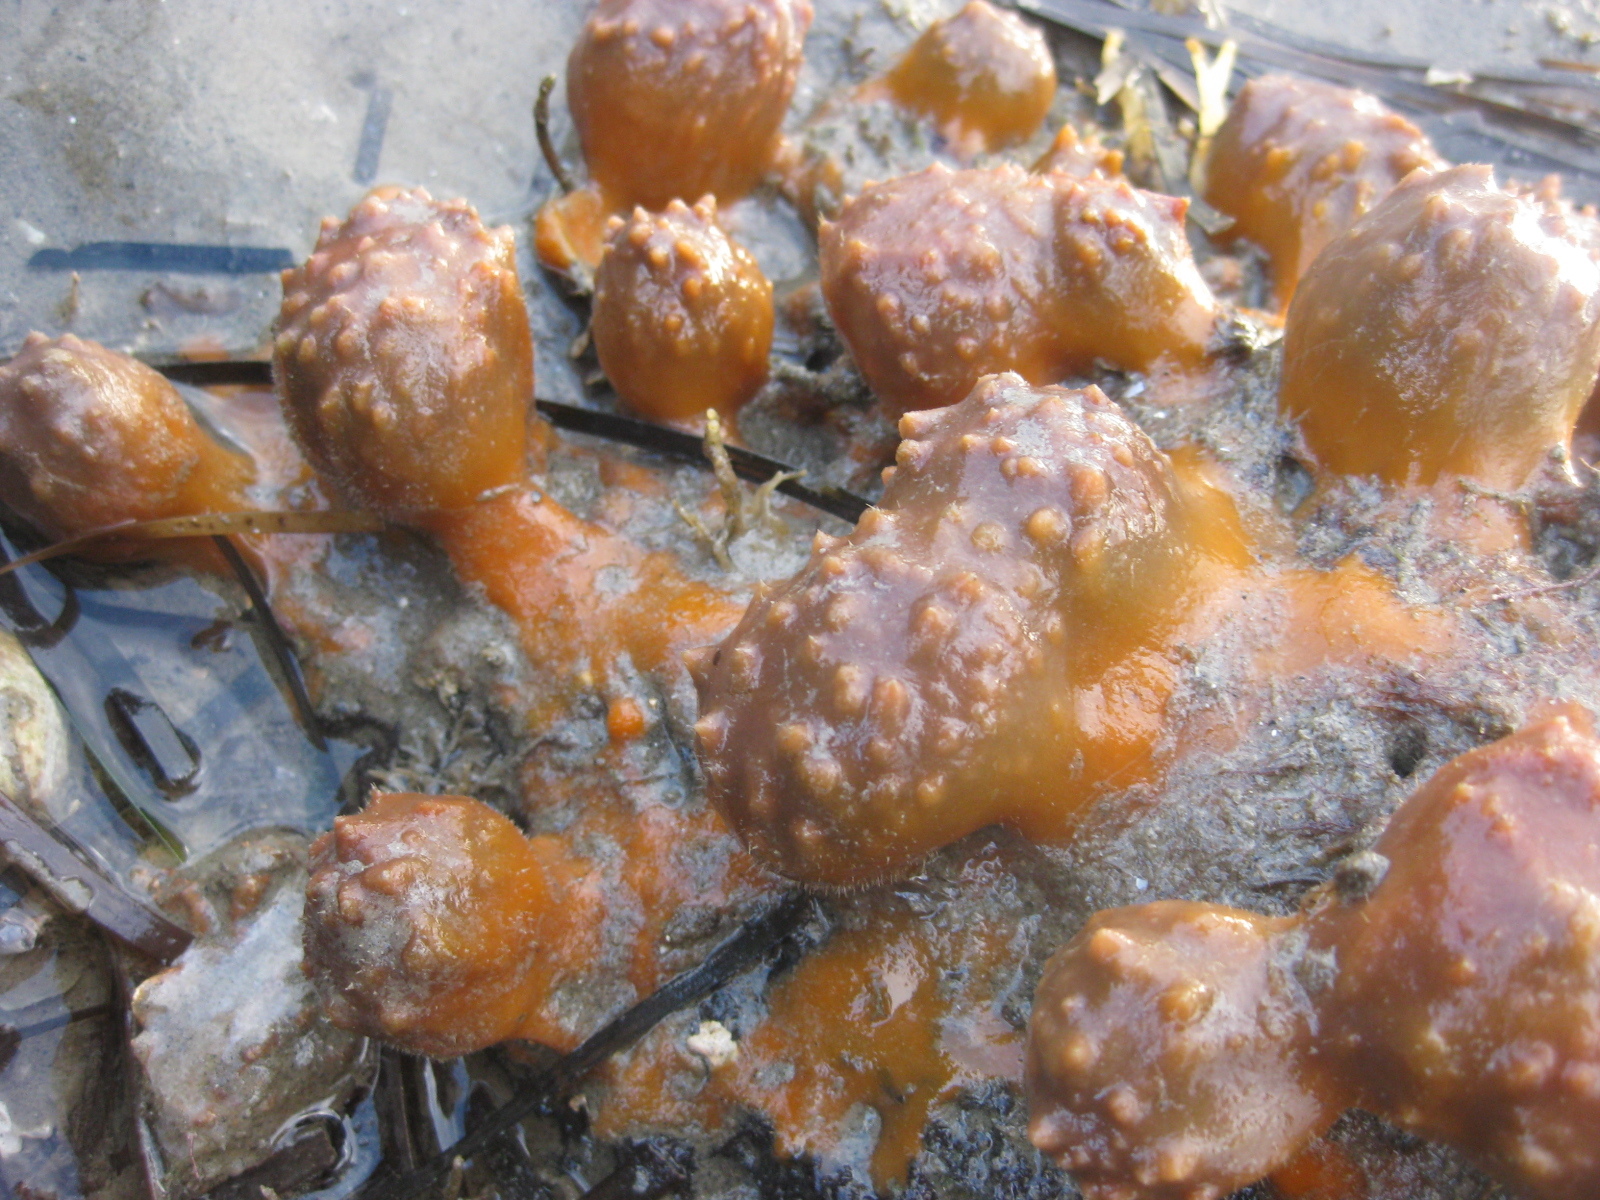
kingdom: Animalia
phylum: Porifera
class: Demospongiae
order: Suberitida
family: Suberitidae
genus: Aaptos
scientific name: Aaptos tenta
